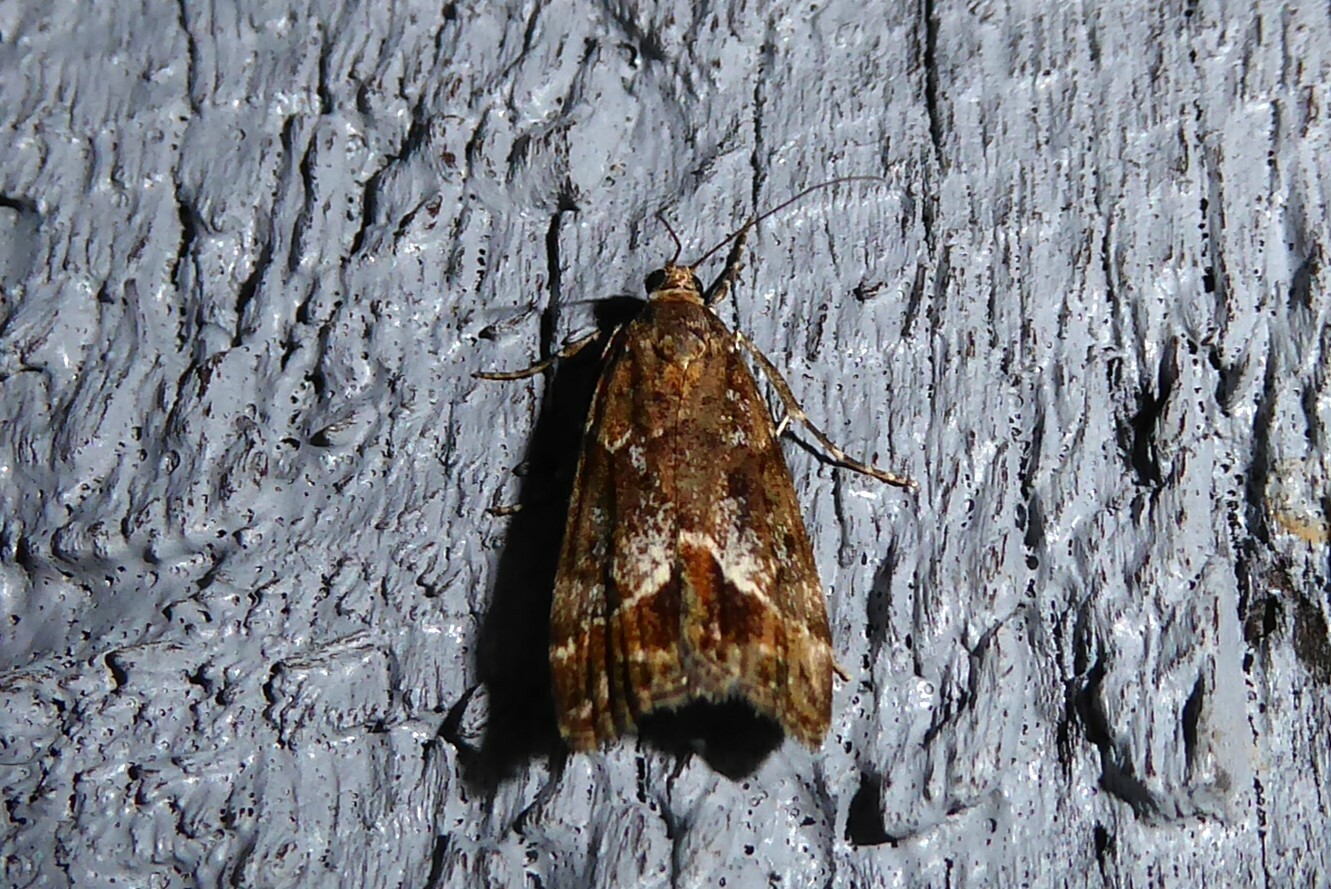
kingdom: Animalia
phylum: Arthropoda
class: Insecta
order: Lepidoptera
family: Crambidae
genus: Eudonia
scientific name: Eudonia legnota
